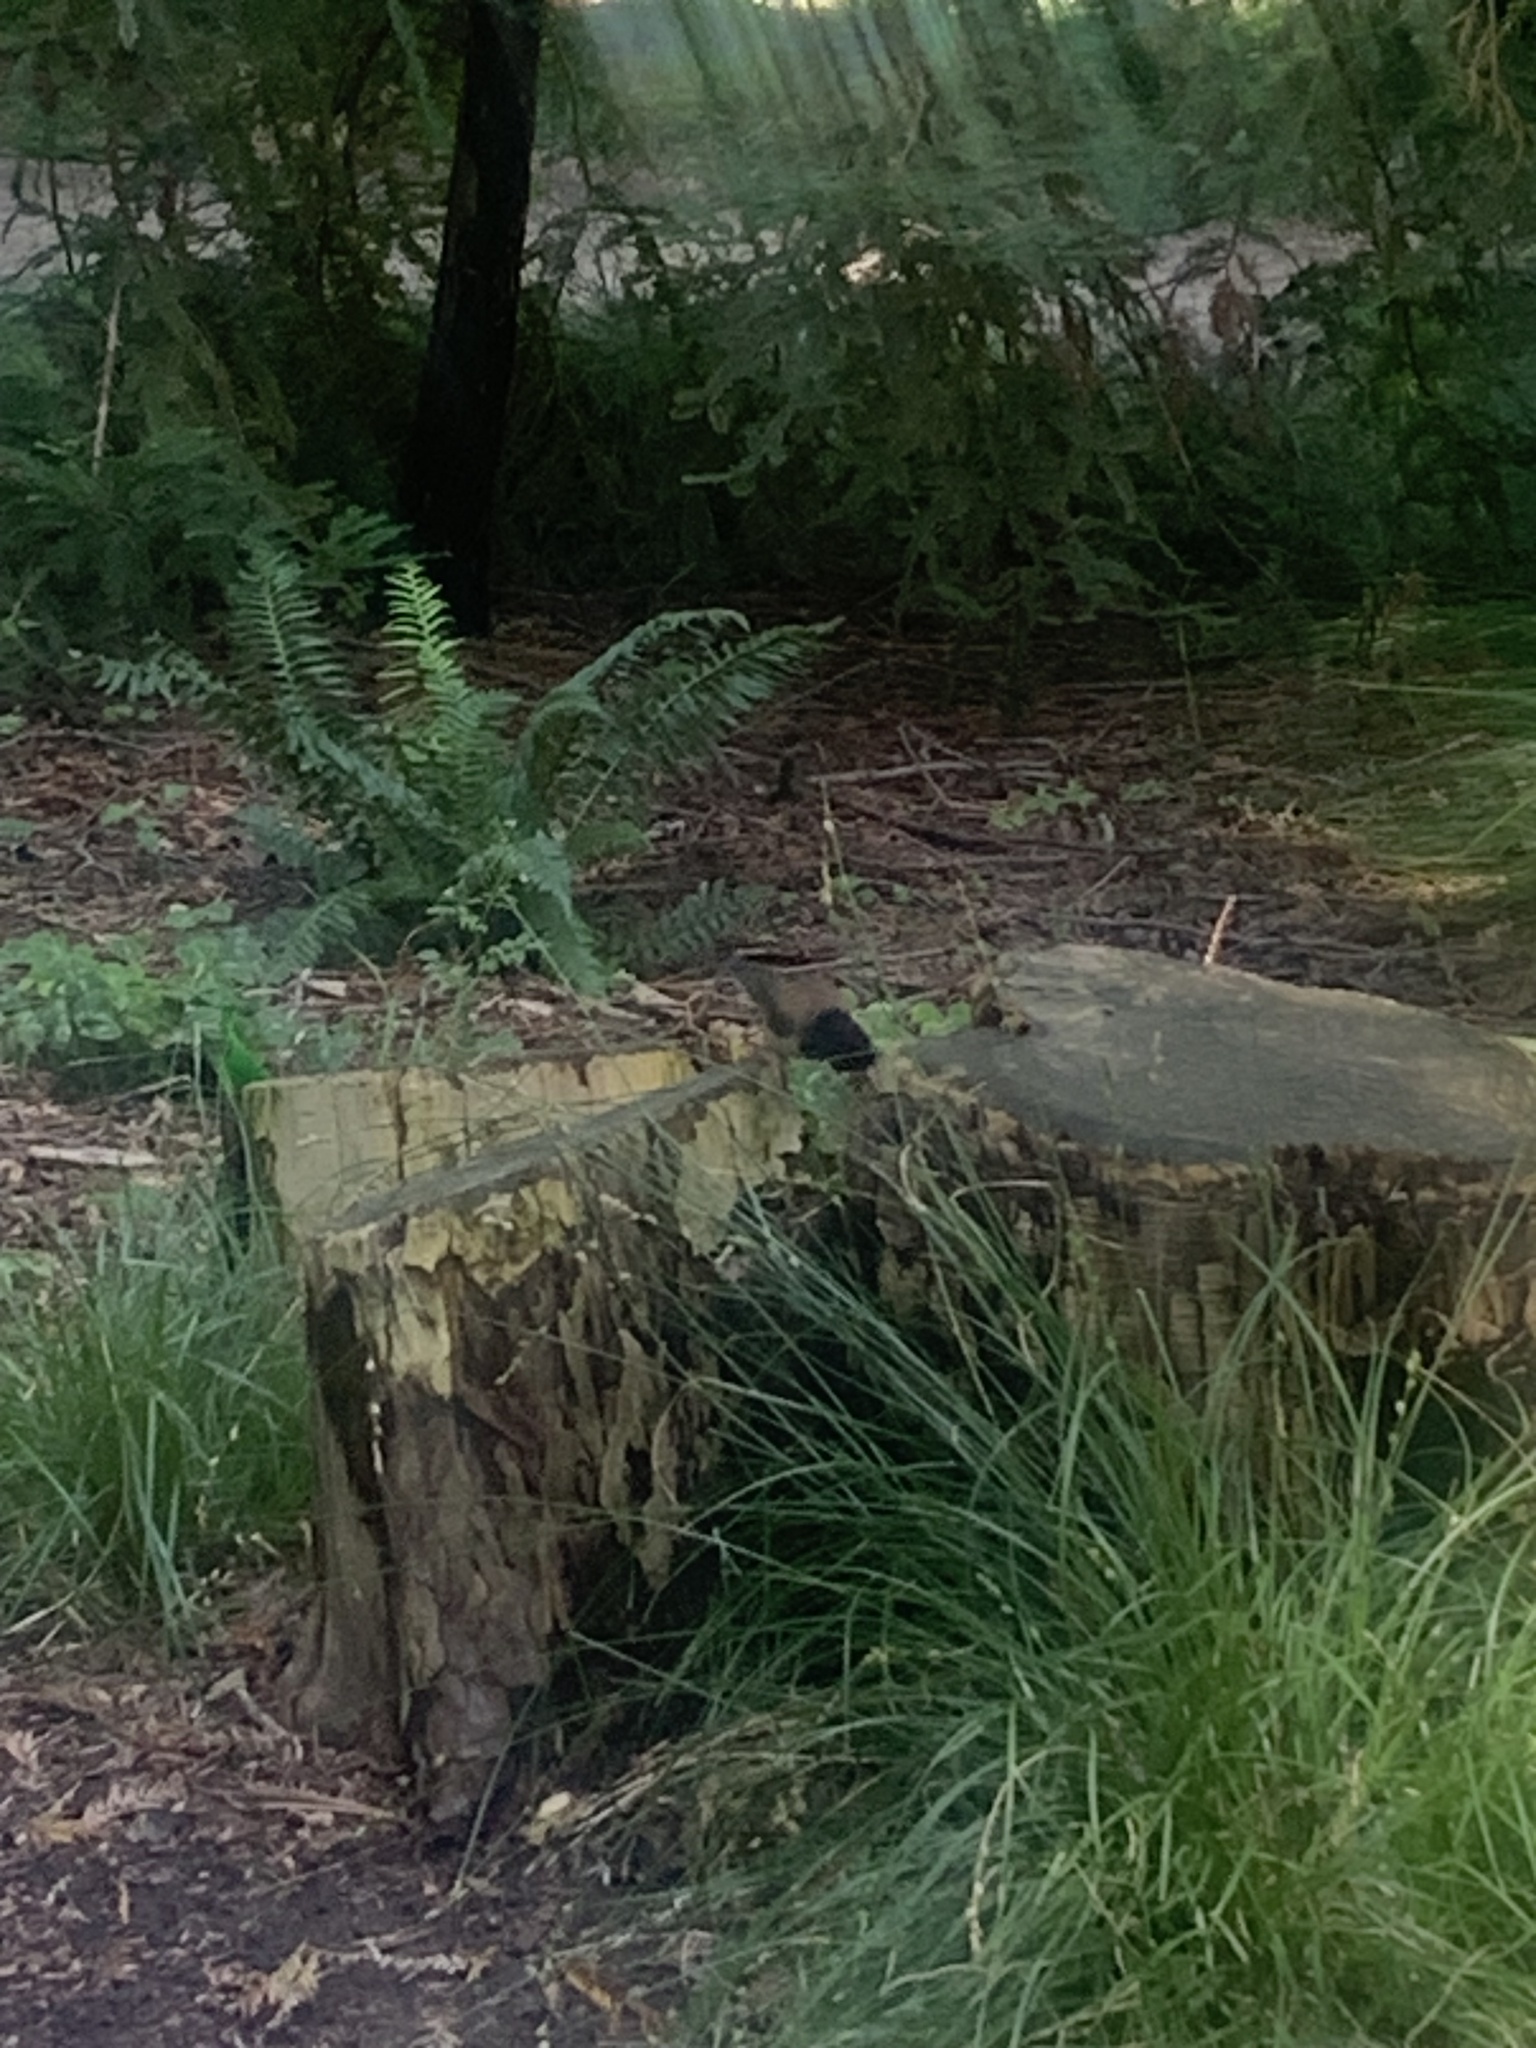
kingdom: Animalia
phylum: Chordata
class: Aves
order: Passeriformes
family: Passerellidae
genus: Junco
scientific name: Junco hyemalis
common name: Dark-eyed junco
